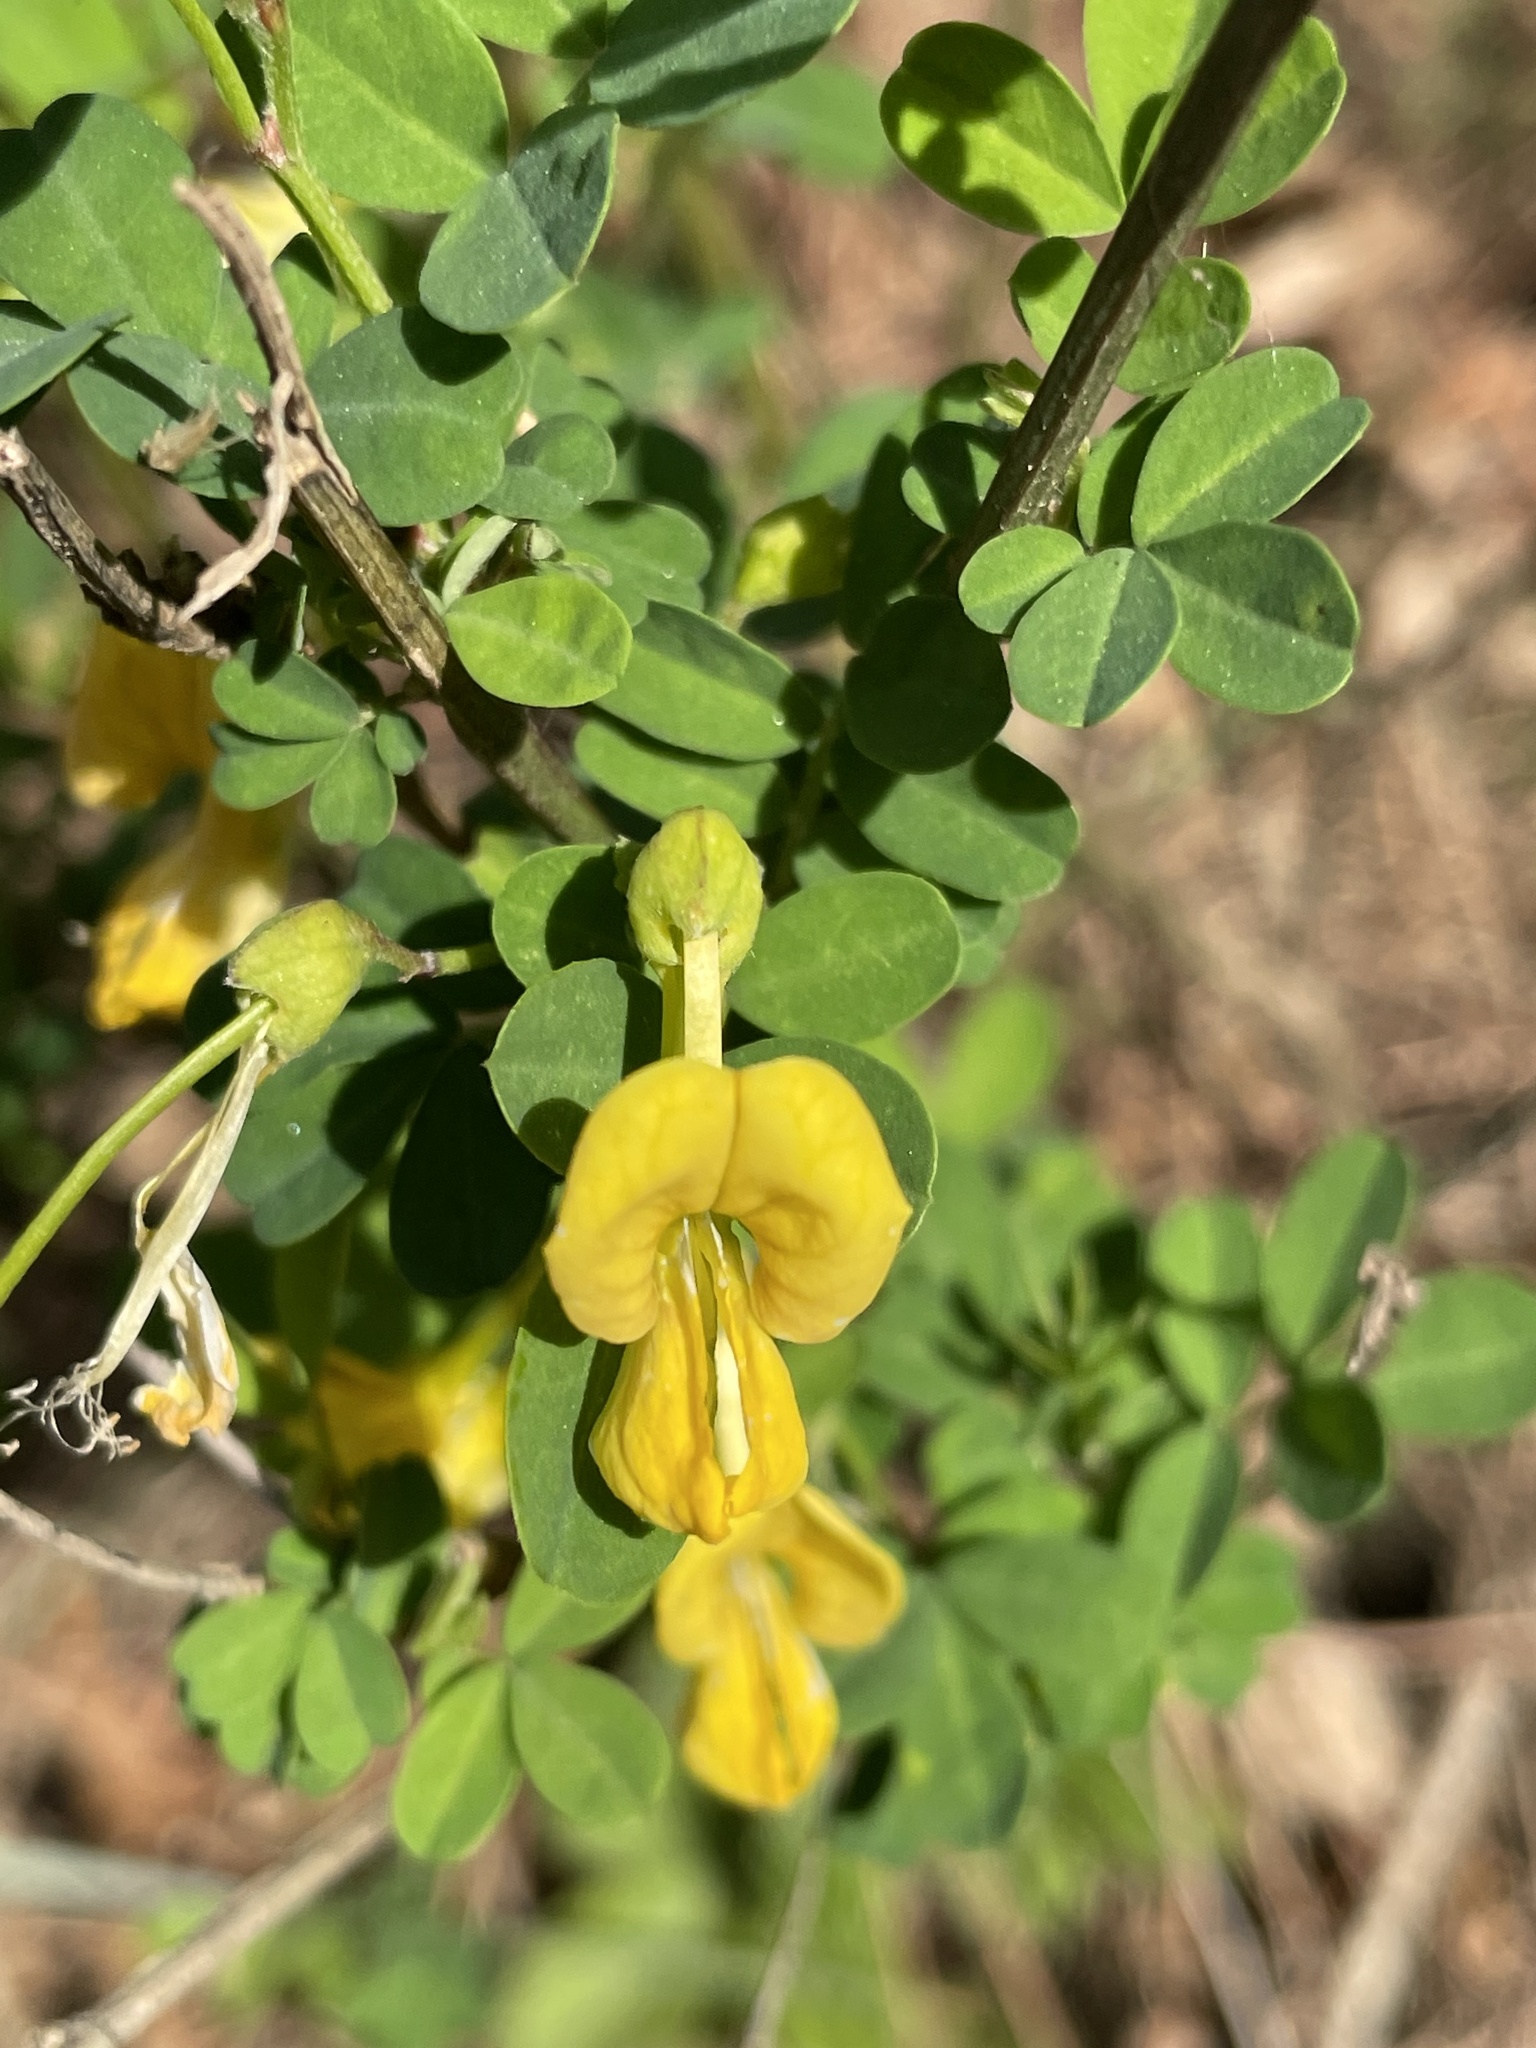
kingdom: Plantae
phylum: Tracheophyta
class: Magnoliopsida
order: Fabales
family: Fabaceae
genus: Hippocrepis
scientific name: Hippocrepis emerus
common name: Scorpion senna
